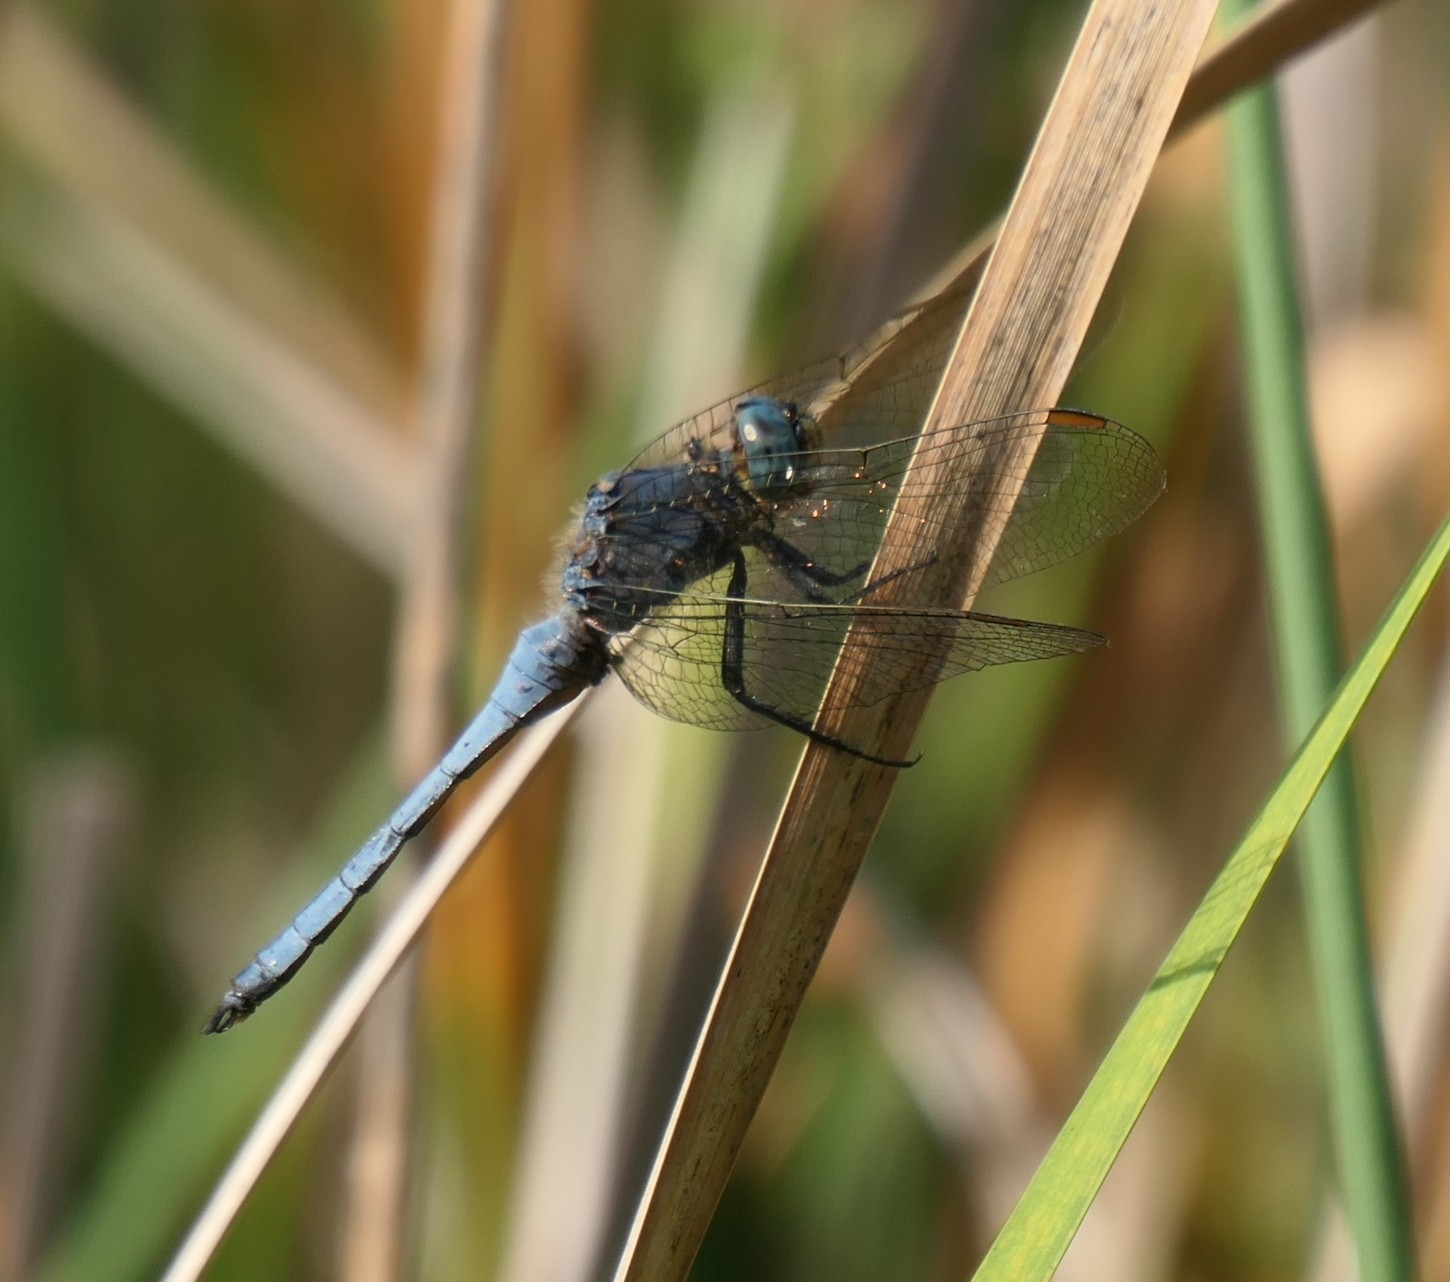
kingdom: Animalia
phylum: Arthropoda
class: Insecta
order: Odonata
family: Libellulidae
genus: Orthetrum
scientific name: Orthetrum coerulescens
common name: Keeled skimmer
